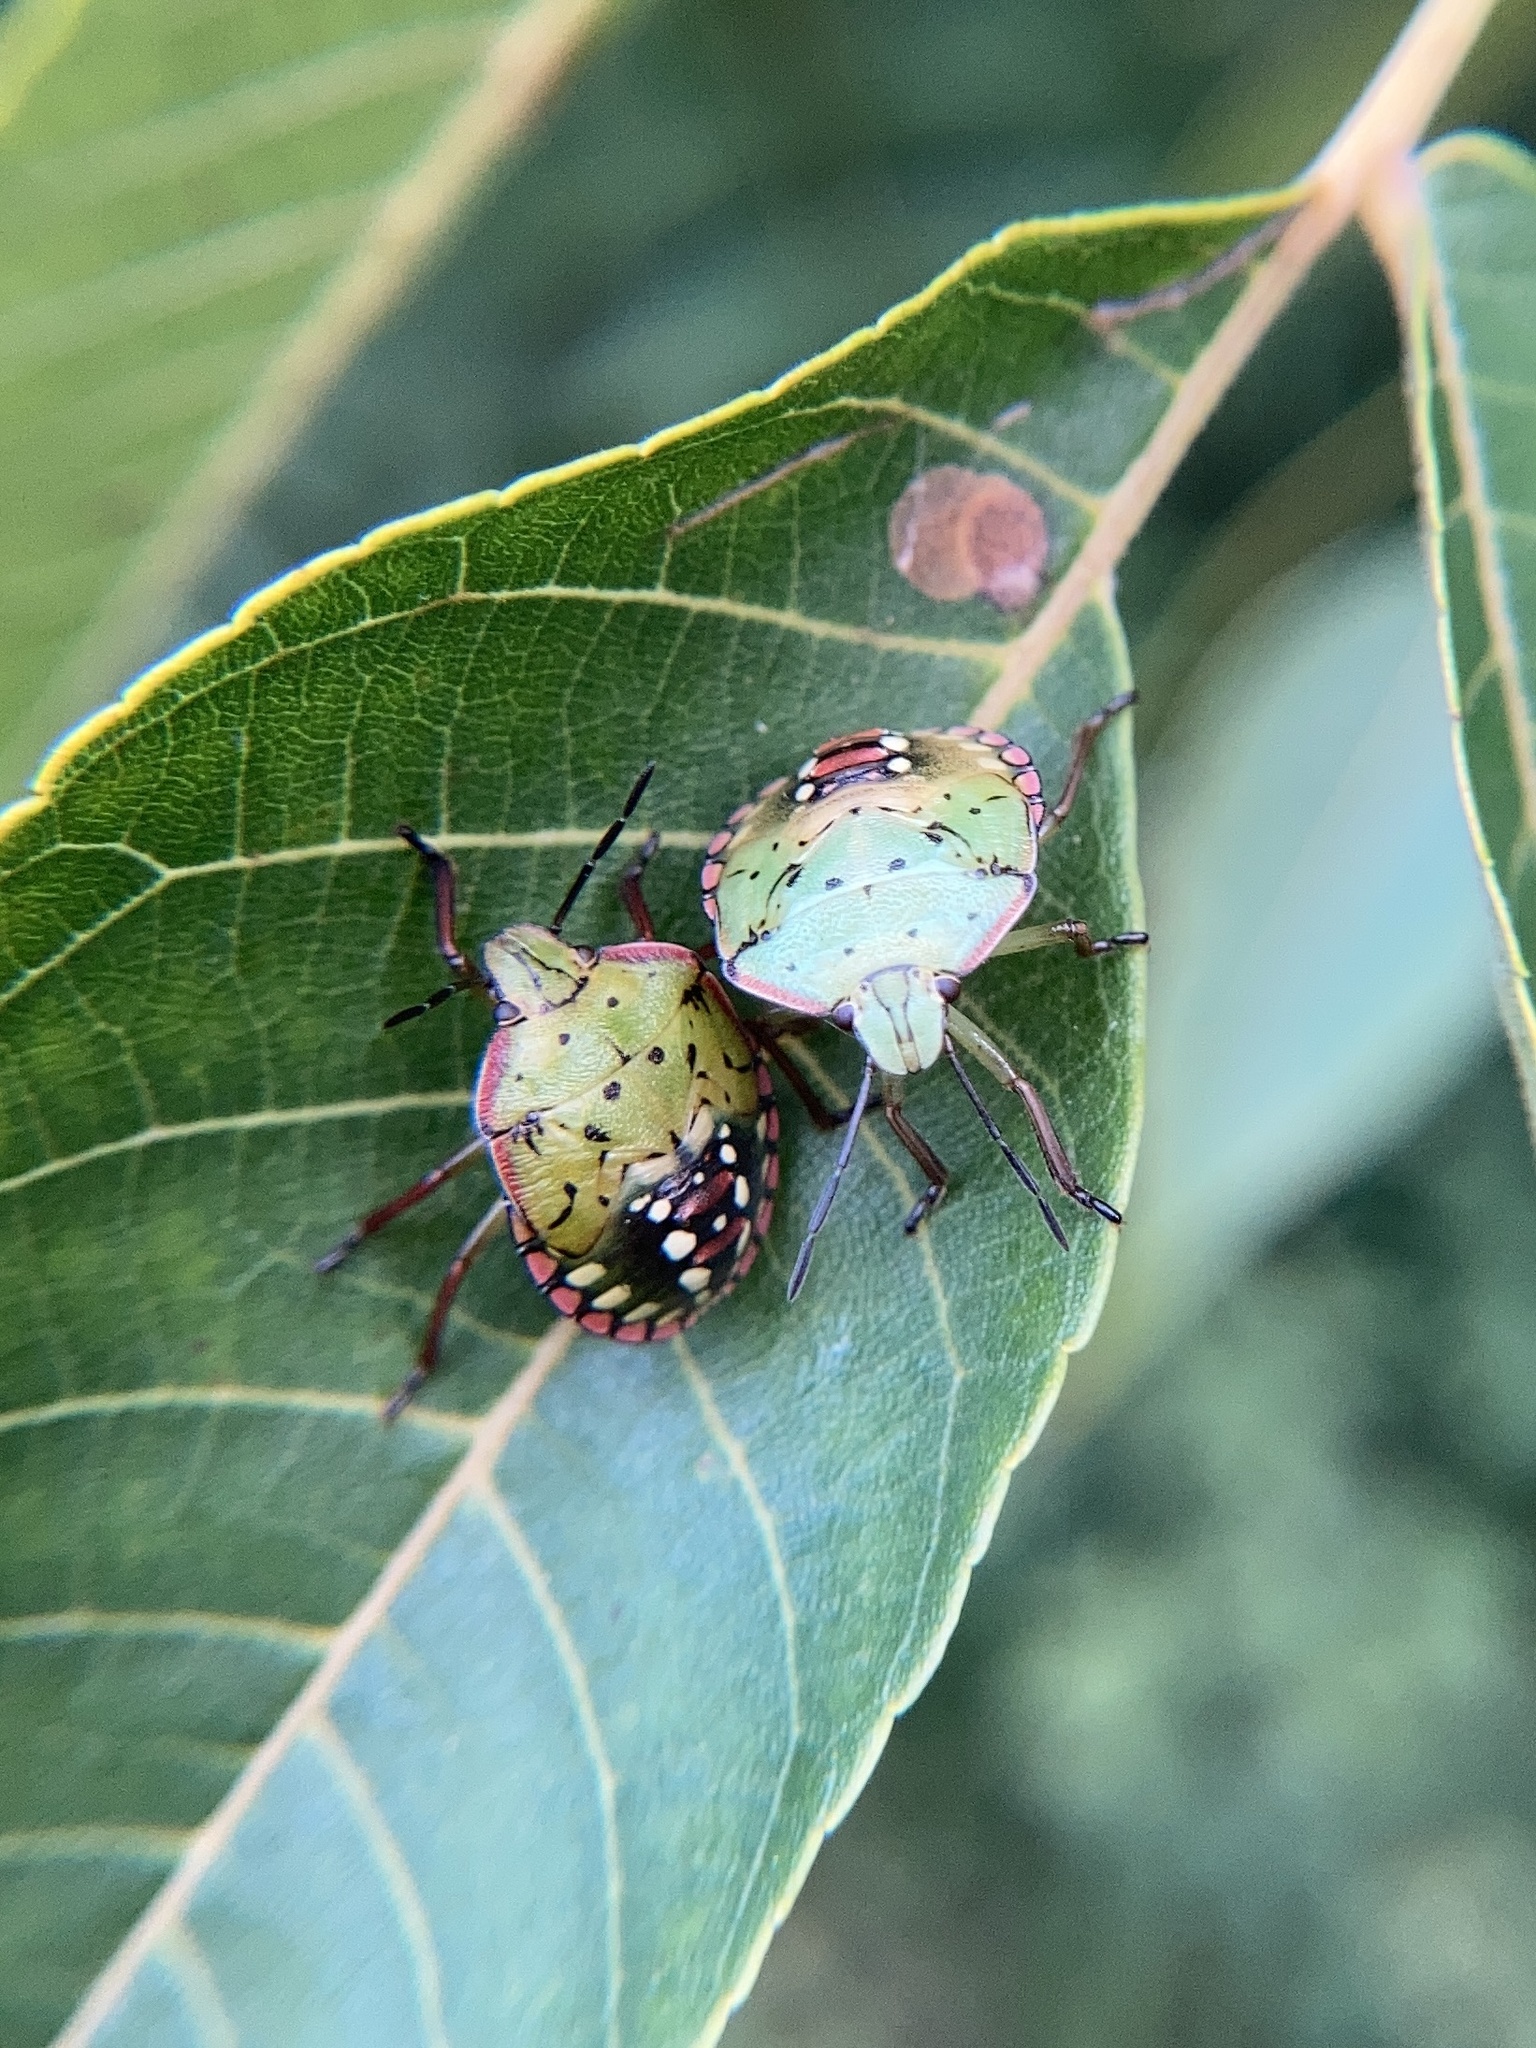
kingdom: Animalia
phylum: Arthropoda
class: Insecta
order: Hemiptera
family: Pentatomidae
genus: Nezara
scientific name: Nezara viridula
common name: Southern green stink bug
